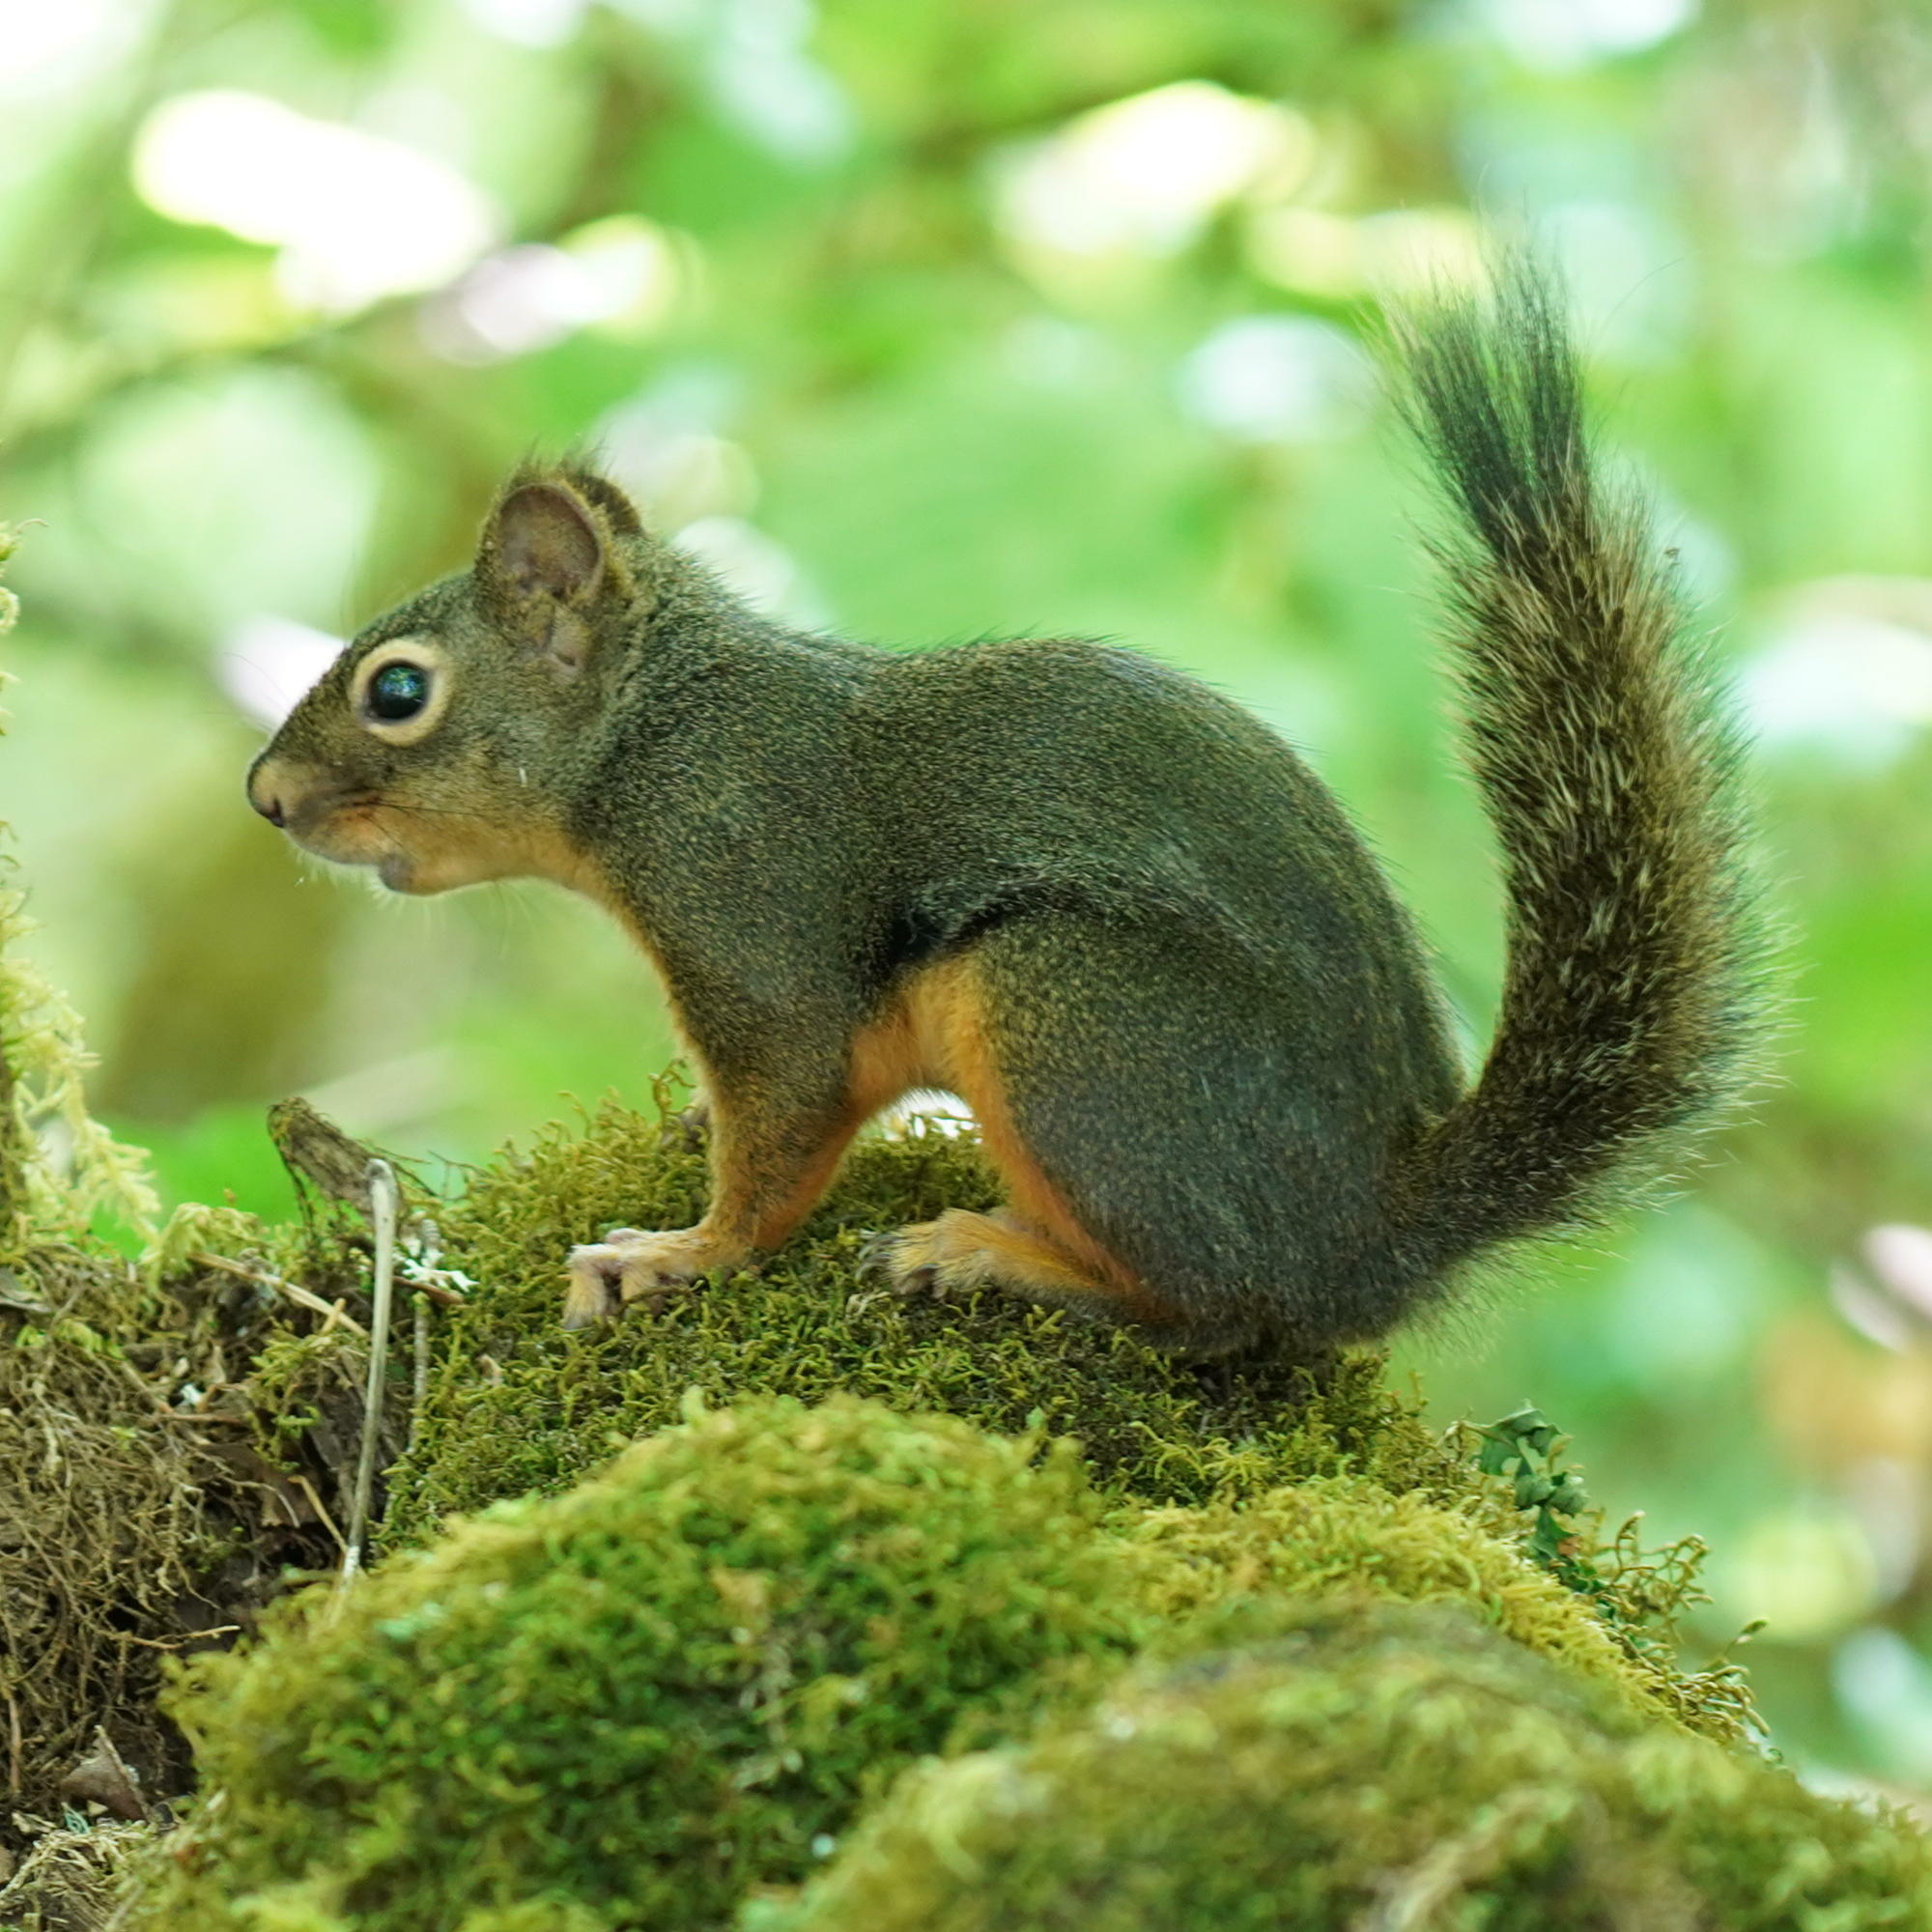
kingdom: Animalia
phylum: Chordata
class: Mammalia
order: Rodentia
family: Sciuridae
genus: Tamiasciurus
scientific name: Tamiasciurus douglasii
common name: Douglas's squirrel
